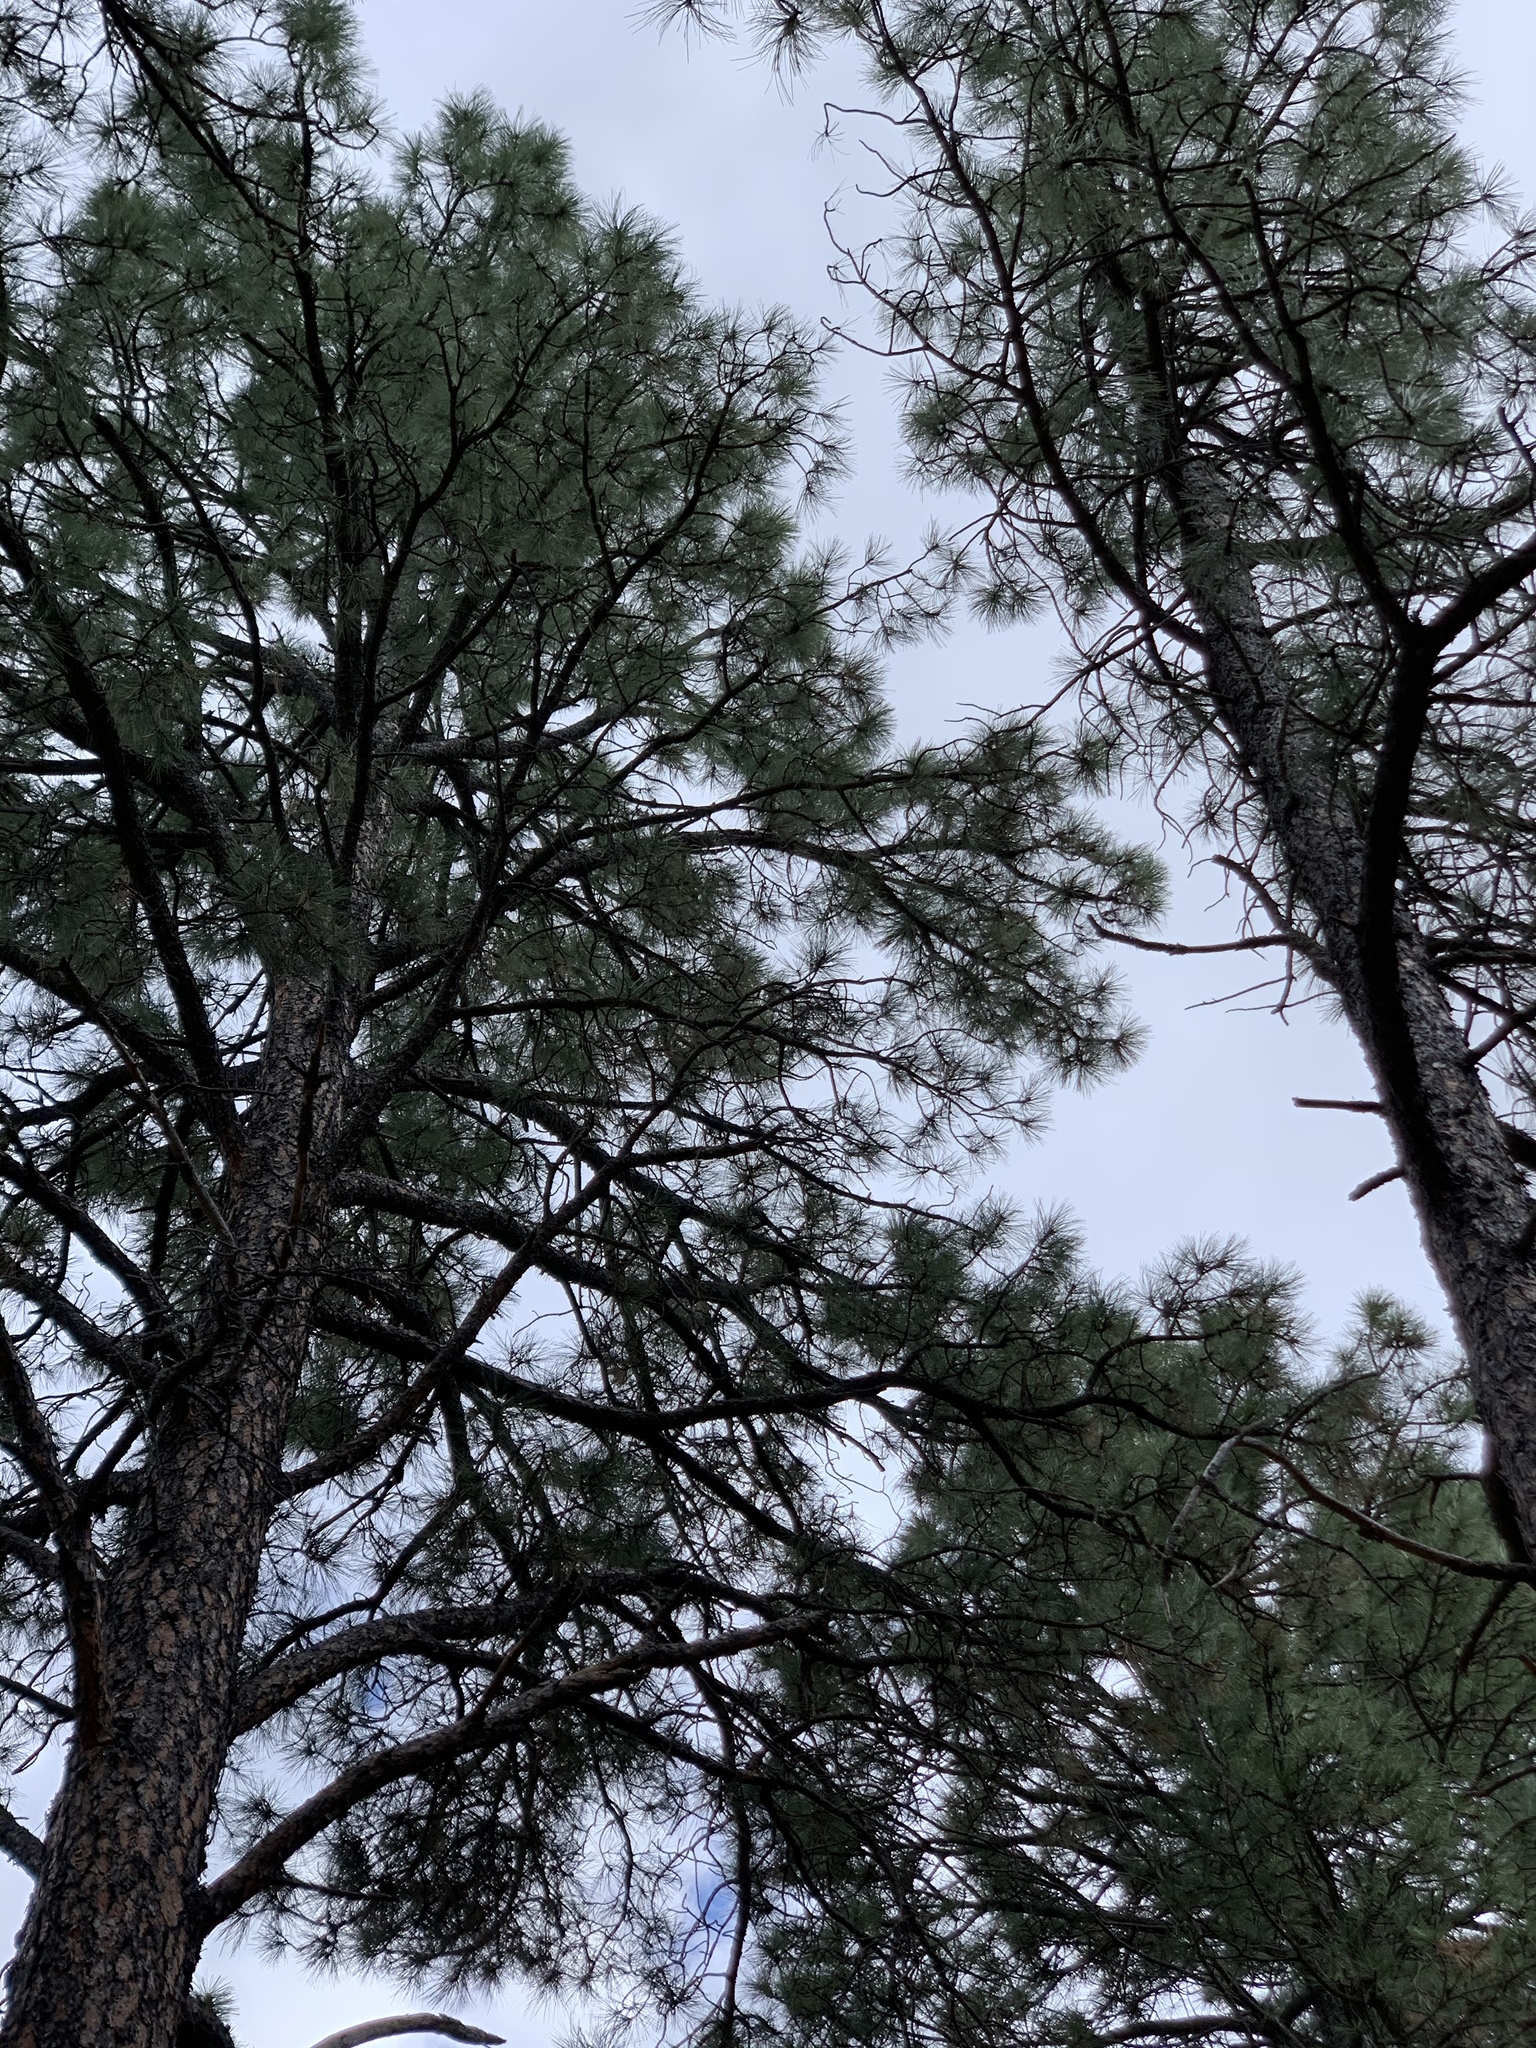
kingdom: Plantae
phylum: Tracheophyta
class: Pinopsida
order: Pinales
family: Pinaceae
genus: Pinus
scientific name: Pinus ponderosa
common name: Western yellow-pine
